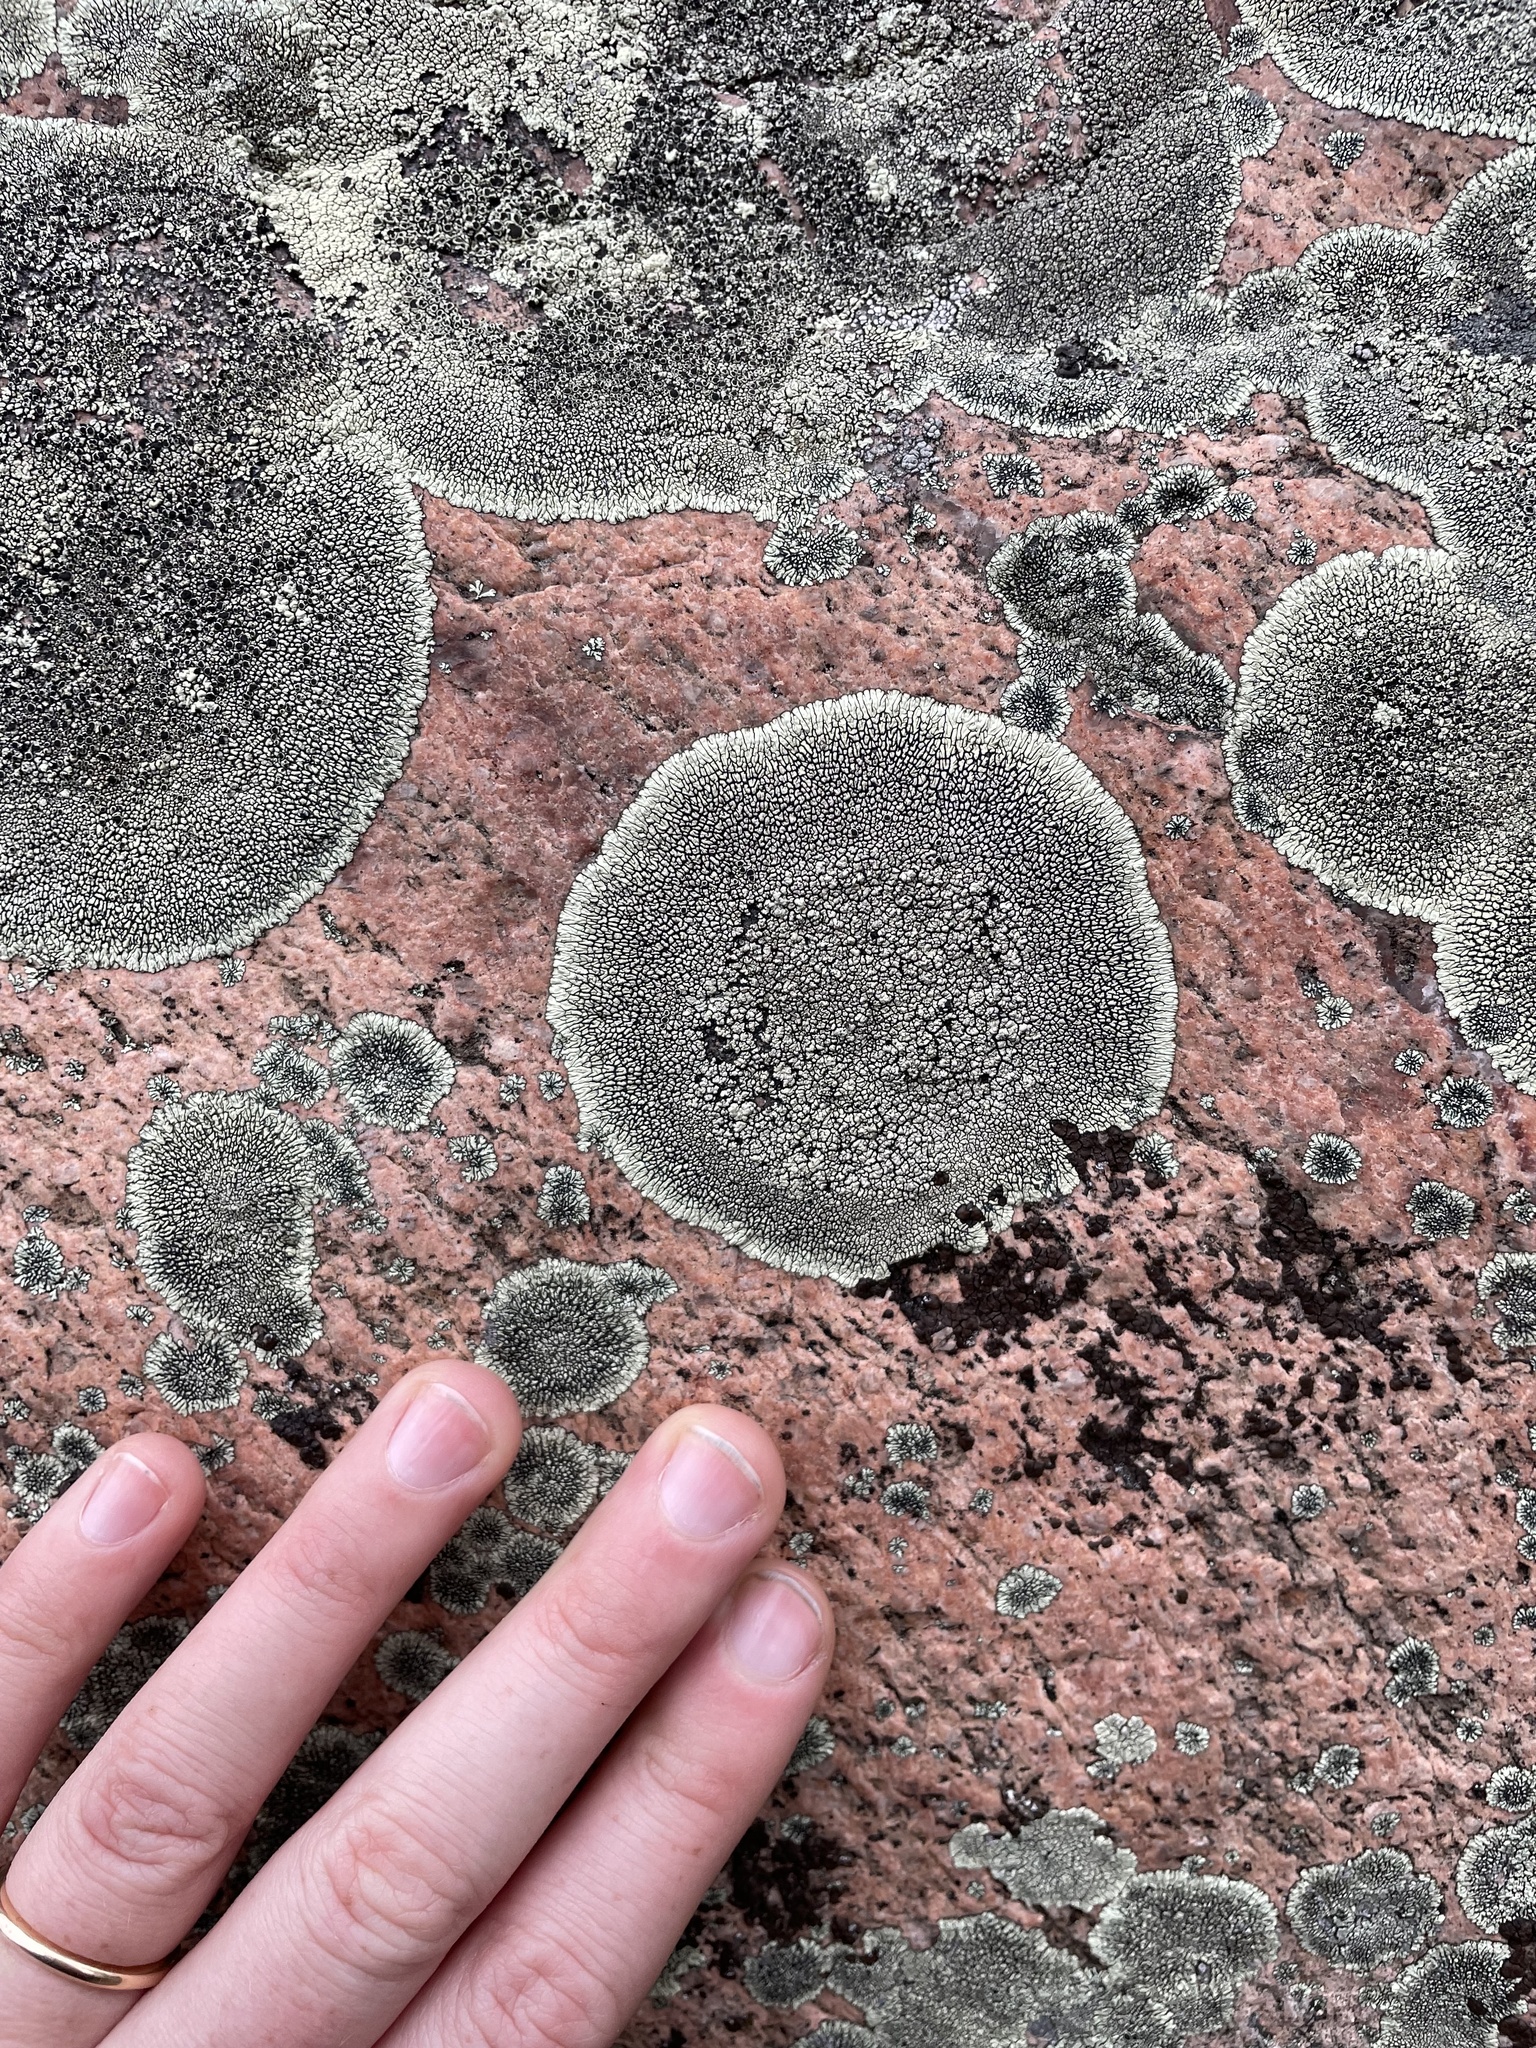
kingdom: Fungi
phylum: Ascomycota
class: Lecanoromycetes
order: Caliciales
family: Caliciaceae
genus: Dimelaena
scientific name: Dimelaena oreina
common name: Golden moonglow lichen
